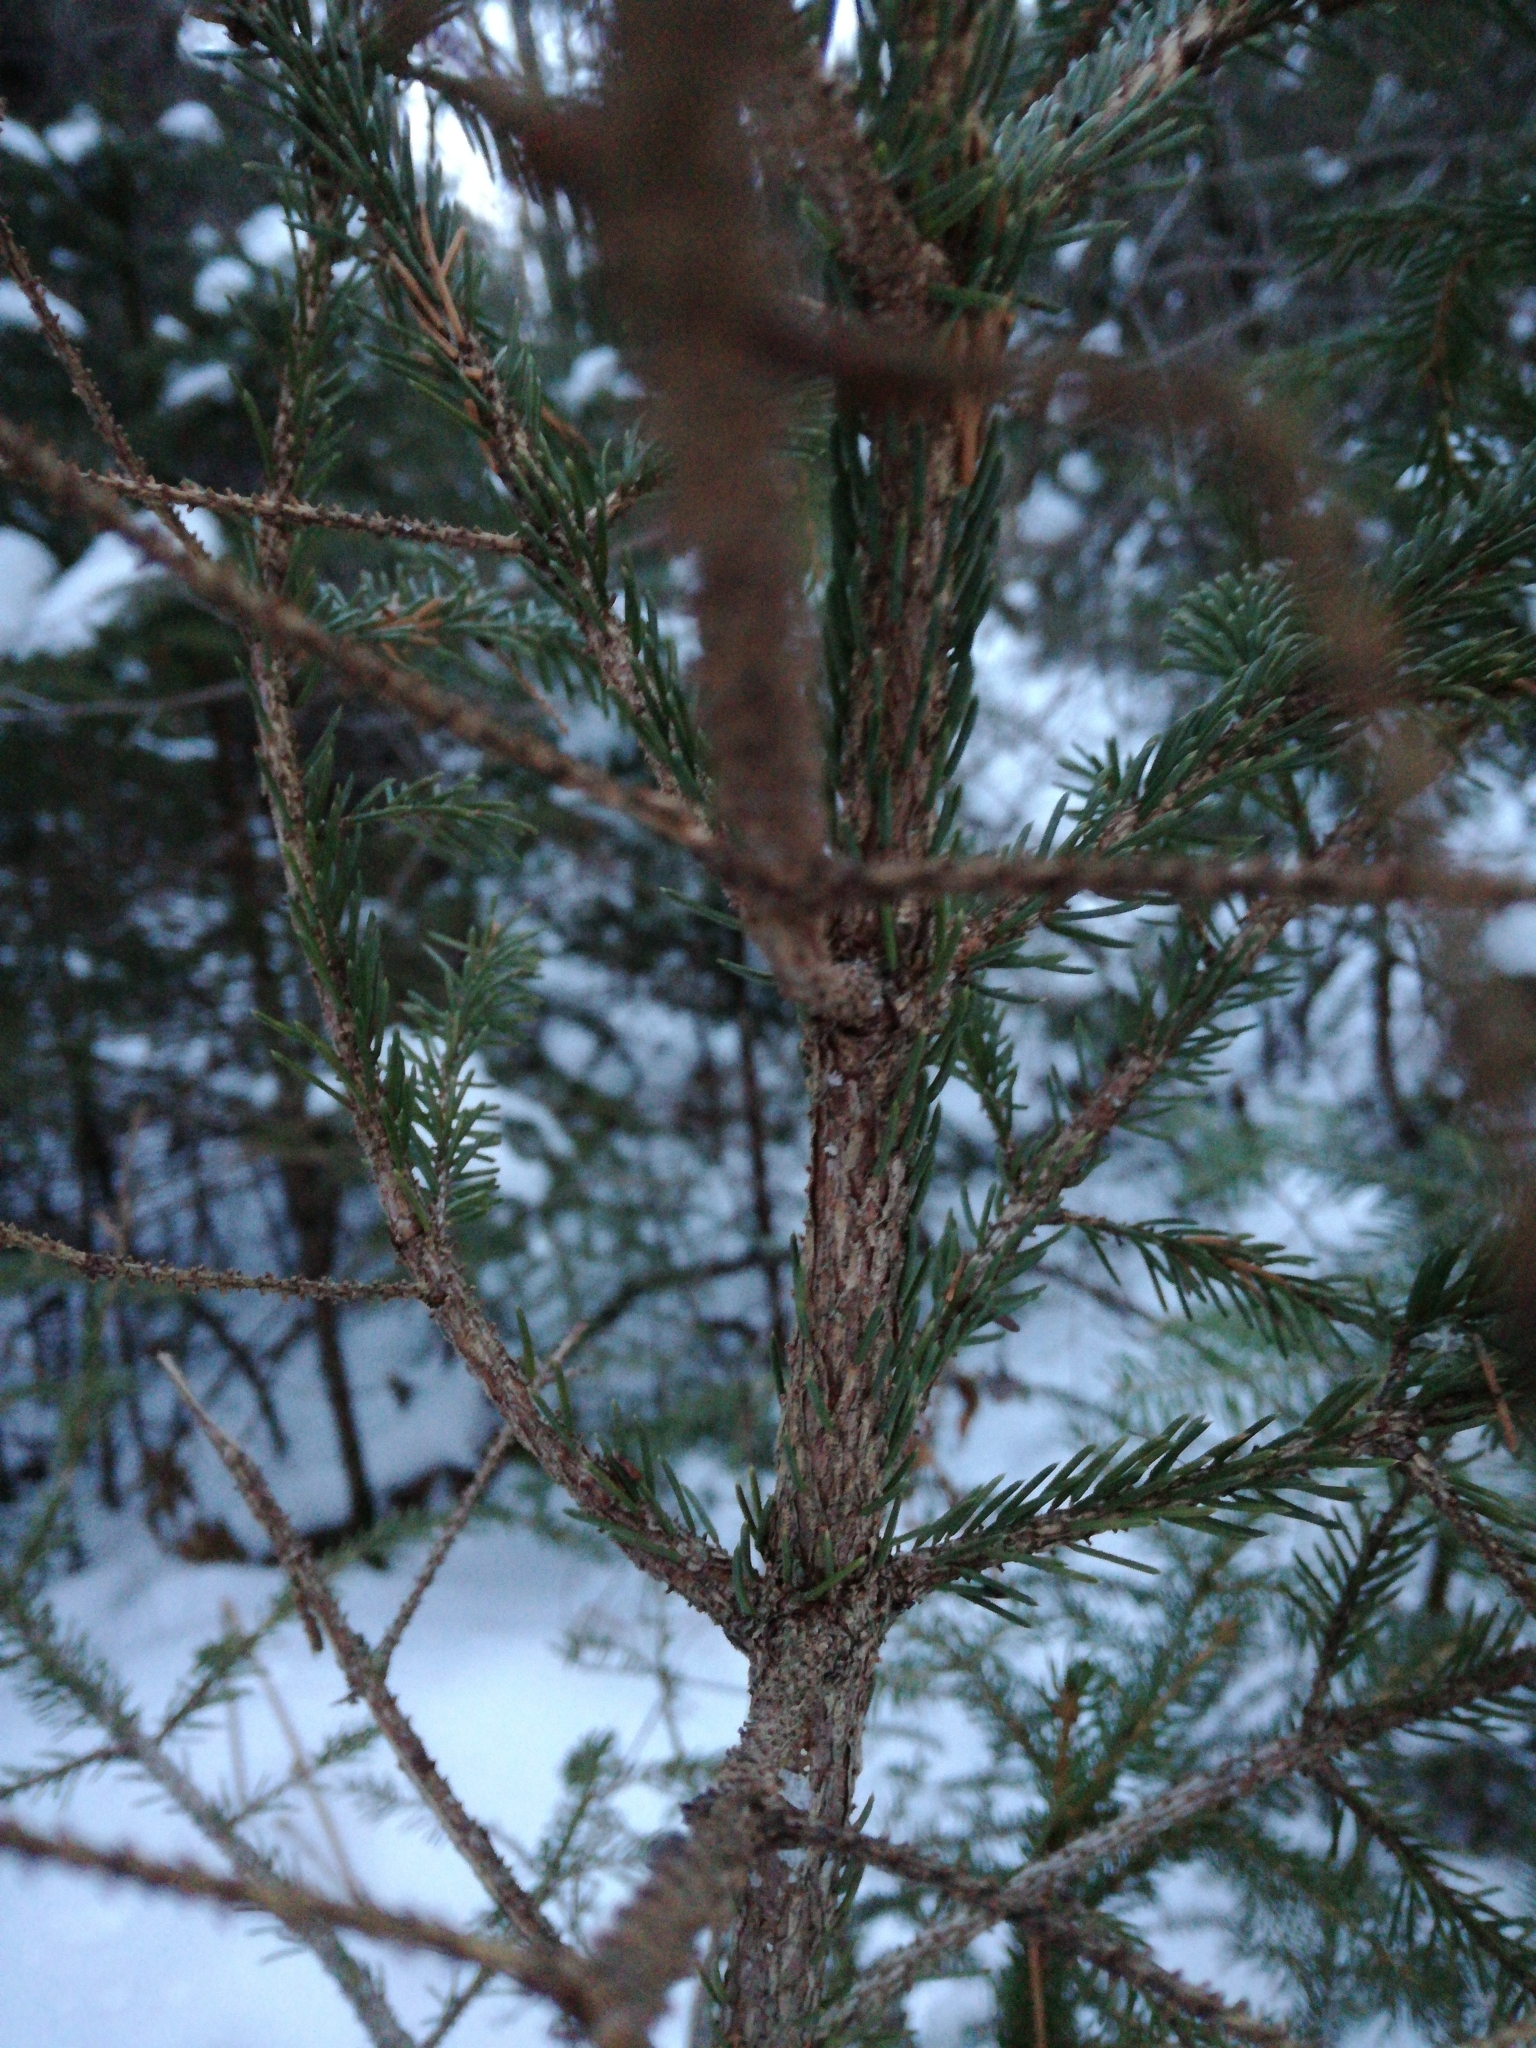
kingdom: Plantae
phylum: Tracheophyta
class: Pinopsida
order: Pinales
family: Pinaceae
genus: Picea
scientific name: Picea rubens
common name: Red spruce
